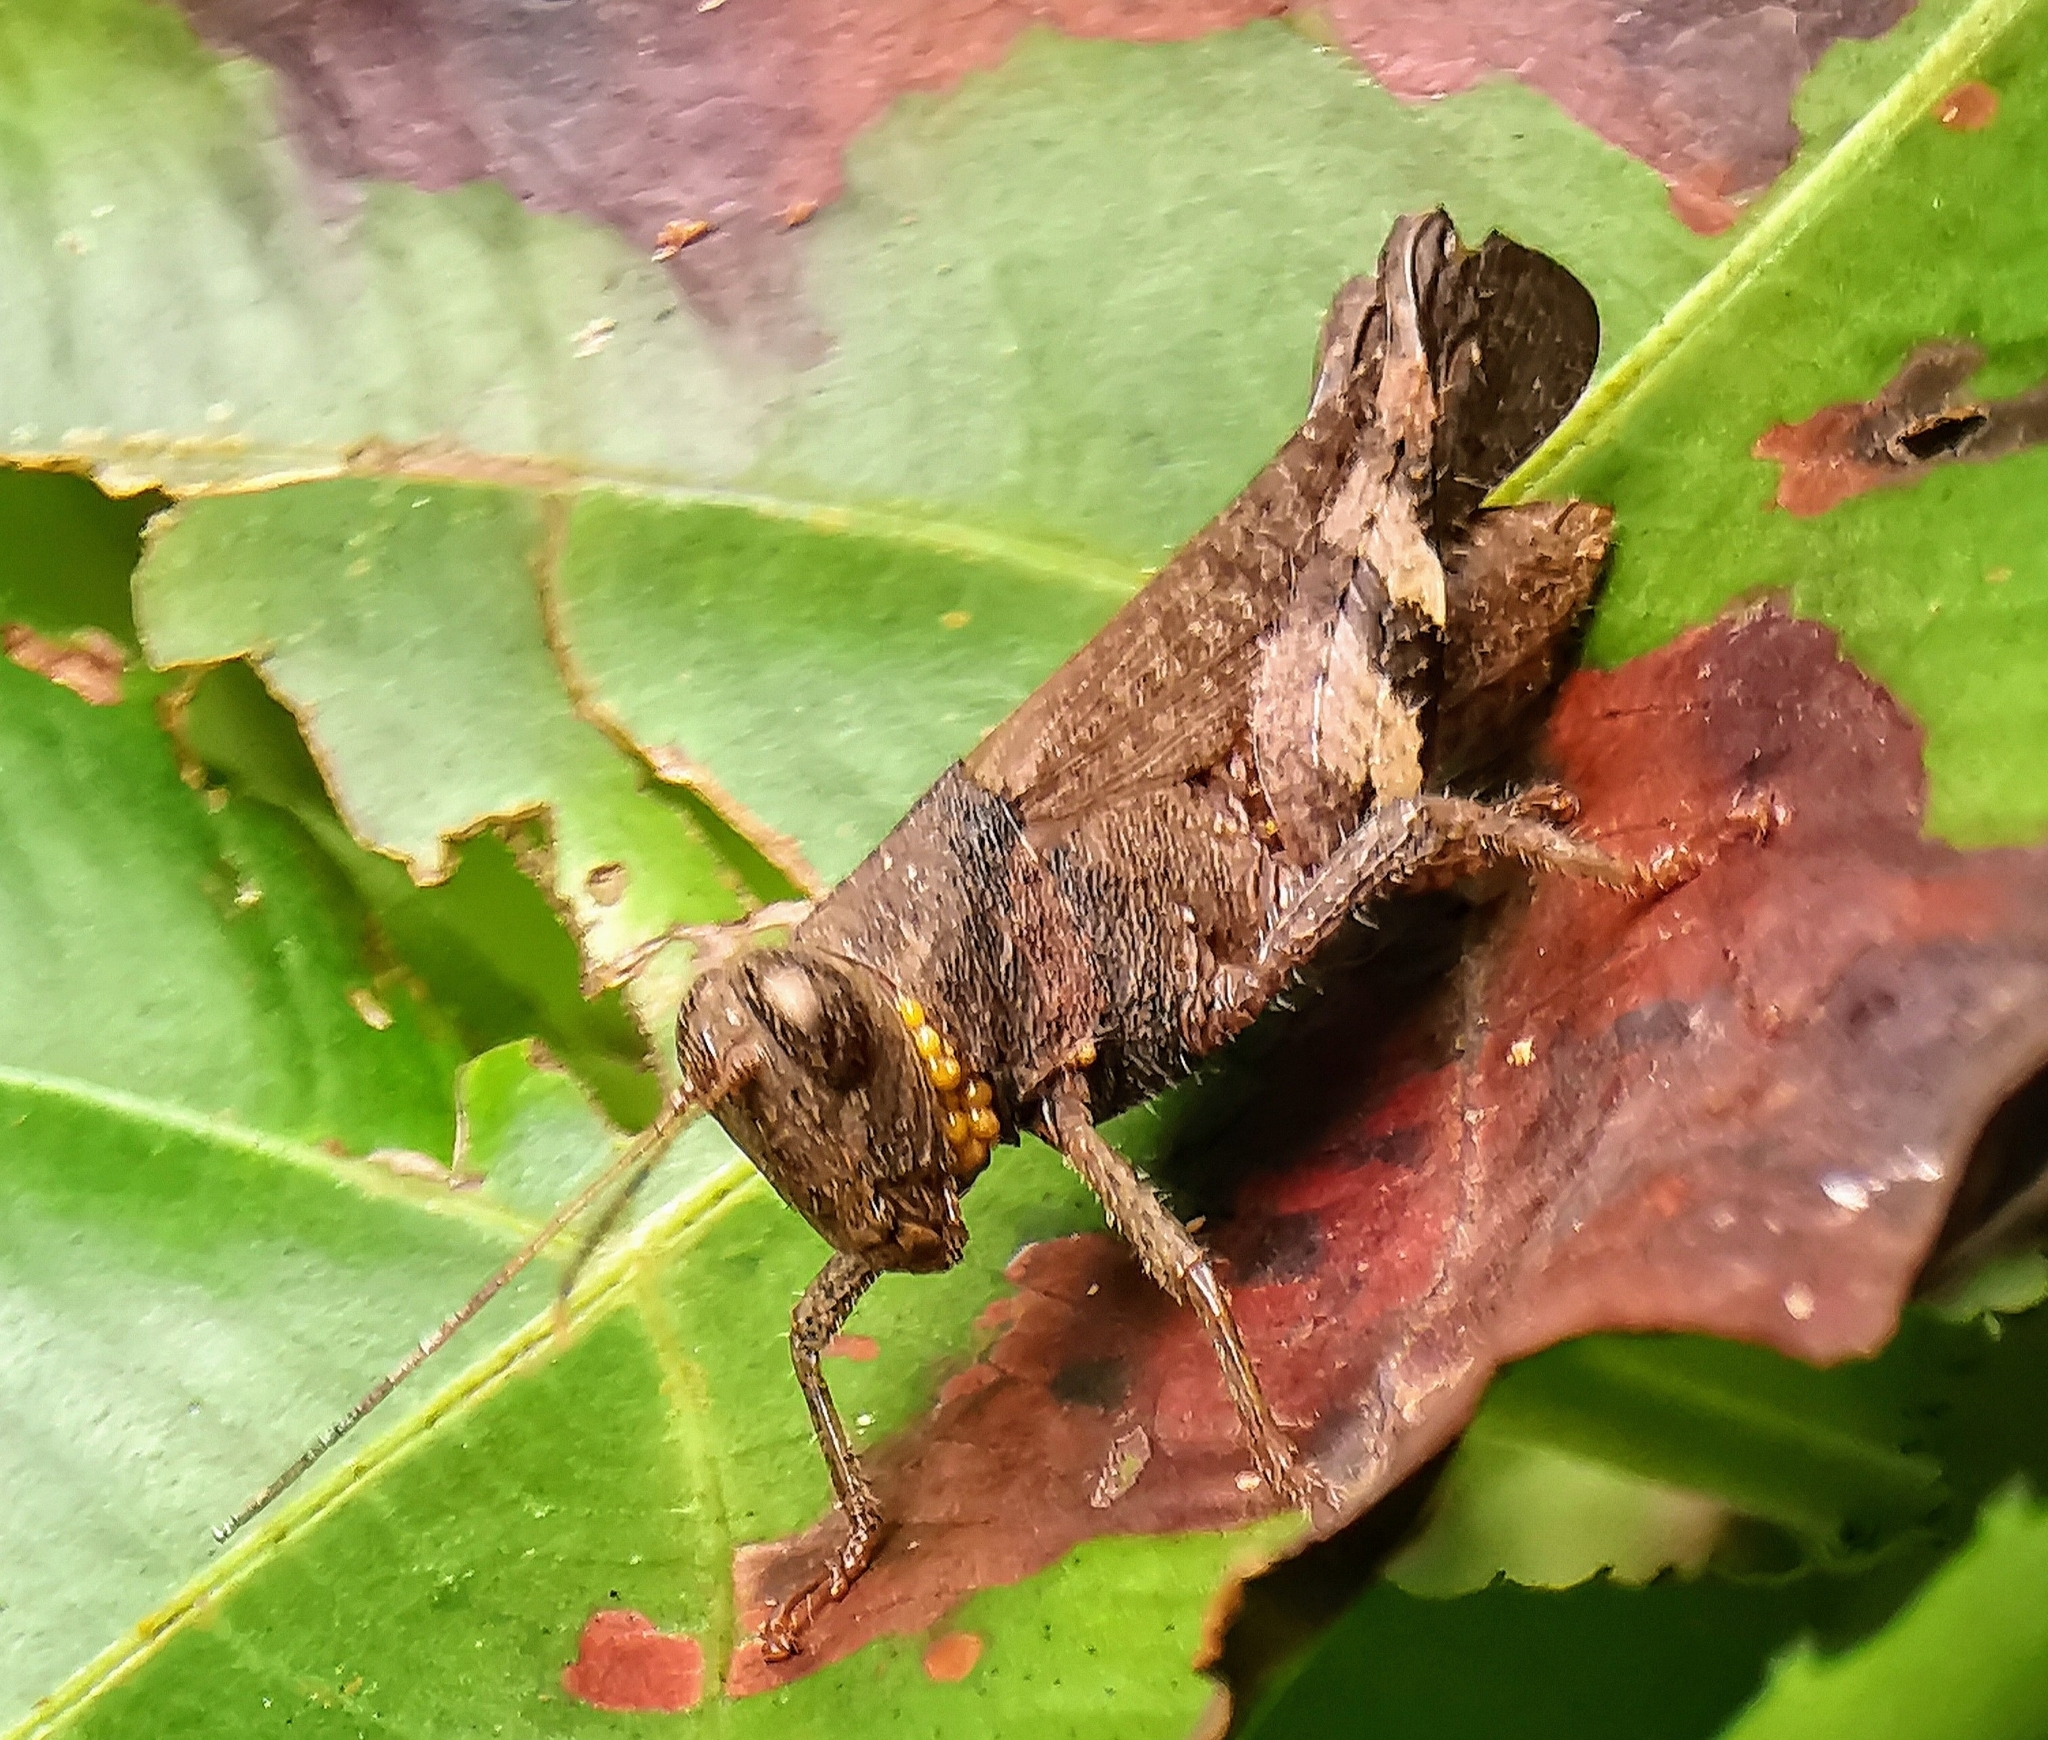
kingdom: Animalia
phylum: Arthropoda
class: Insecta
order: Orthoptera
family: Acrididae
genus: Apalacris
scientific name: Apalacris varicornis
